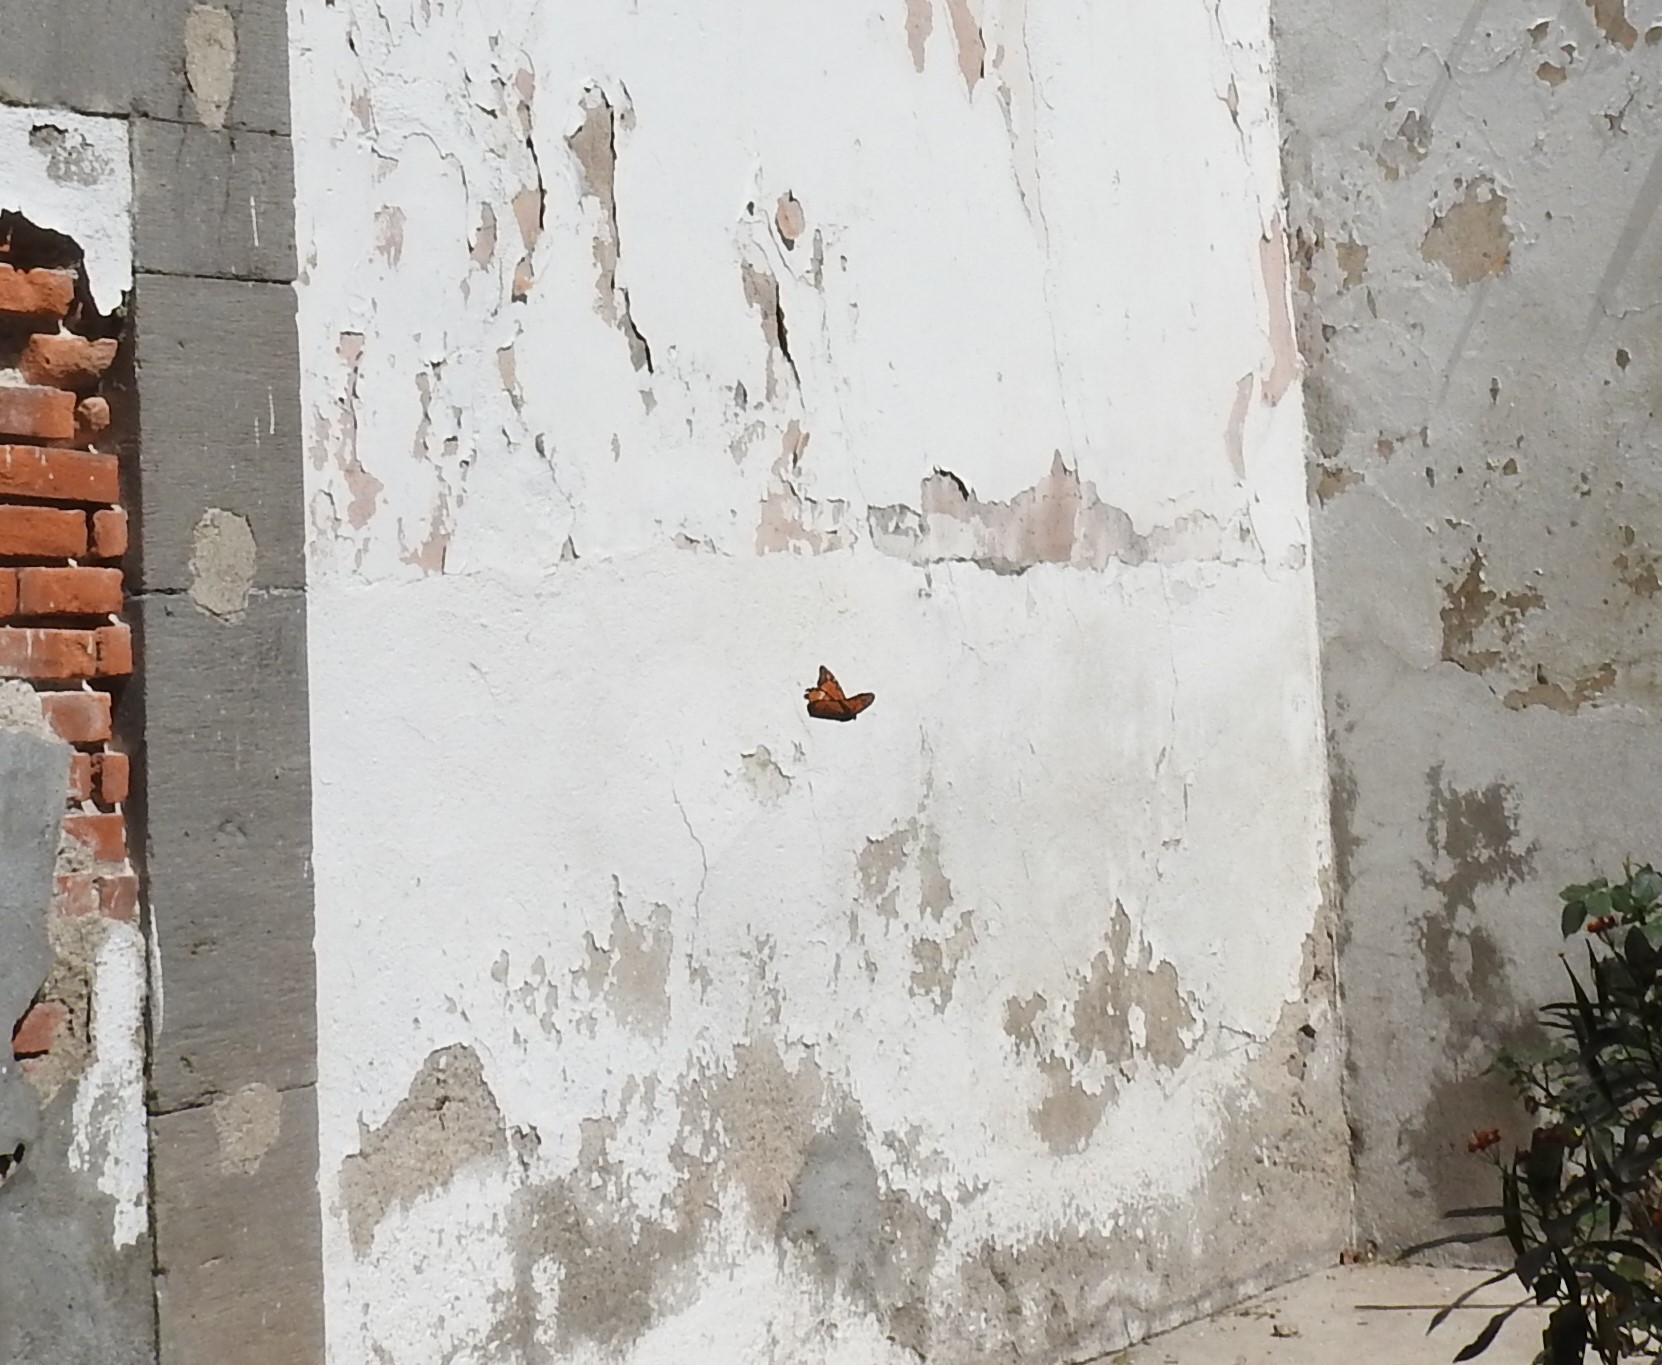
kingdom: Animalia
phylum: Arthropoda
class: Insecta
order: Lepidoptera
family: Nymphalidae
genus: Danaus
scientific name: Danaus plexippus
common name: Monarch
